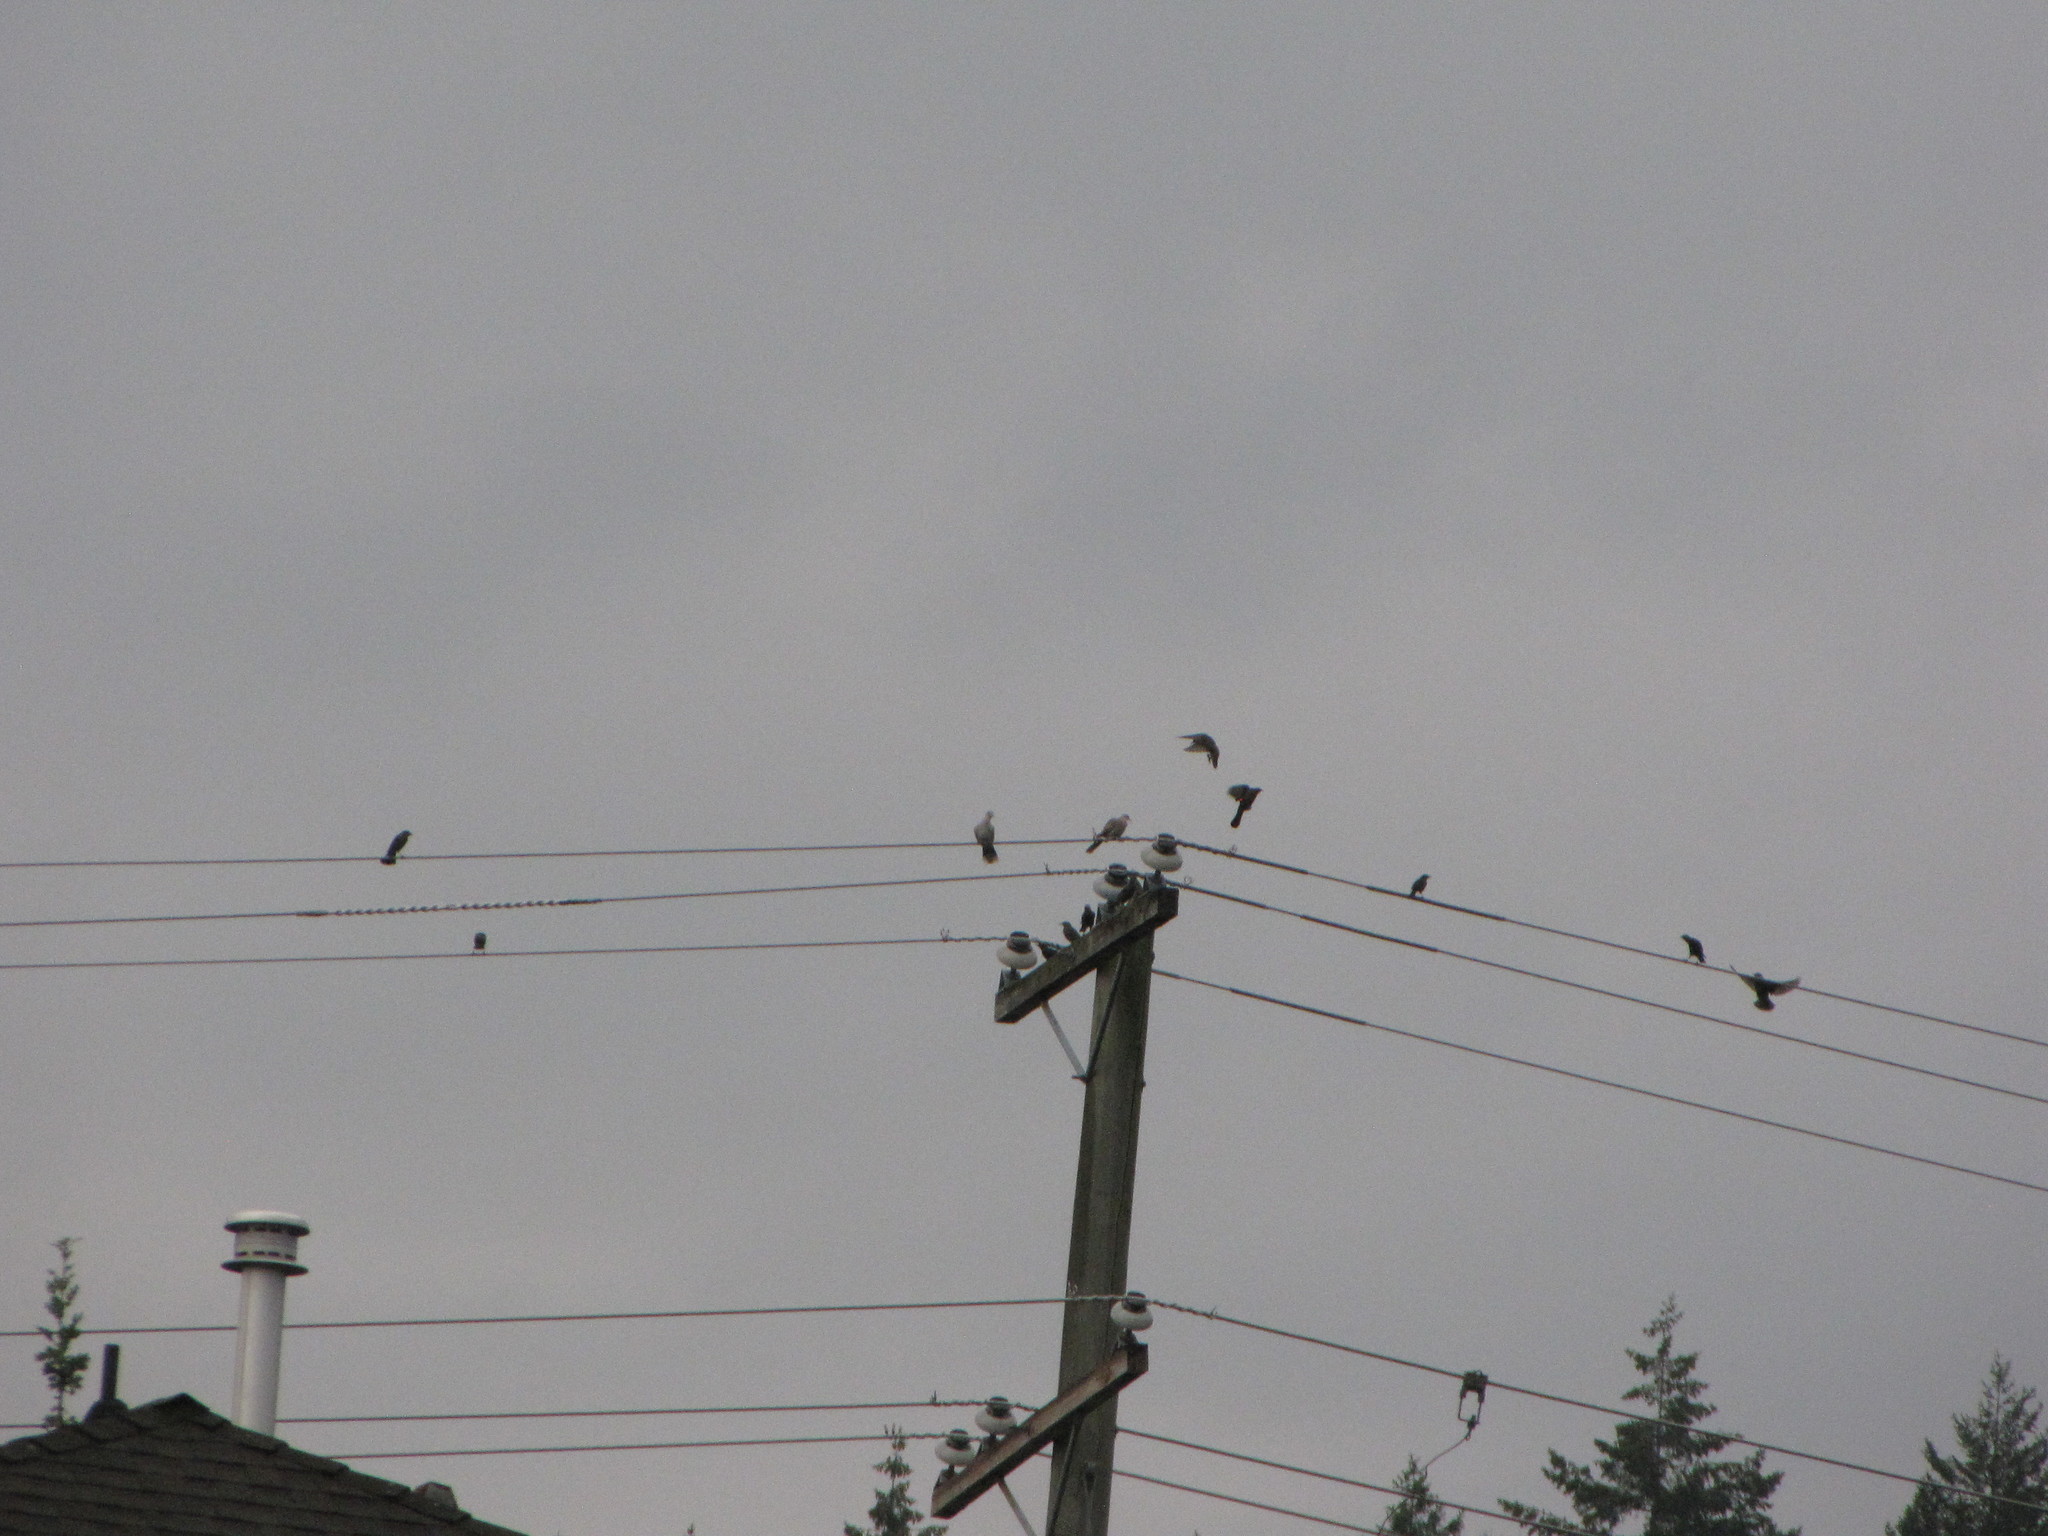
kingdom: Animalia
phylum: Chordata
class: Aves
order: Columbiformes
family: Columbidae
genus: Streptopelia
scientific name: Streptopelia decaocto
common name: Eurasian collared dove
